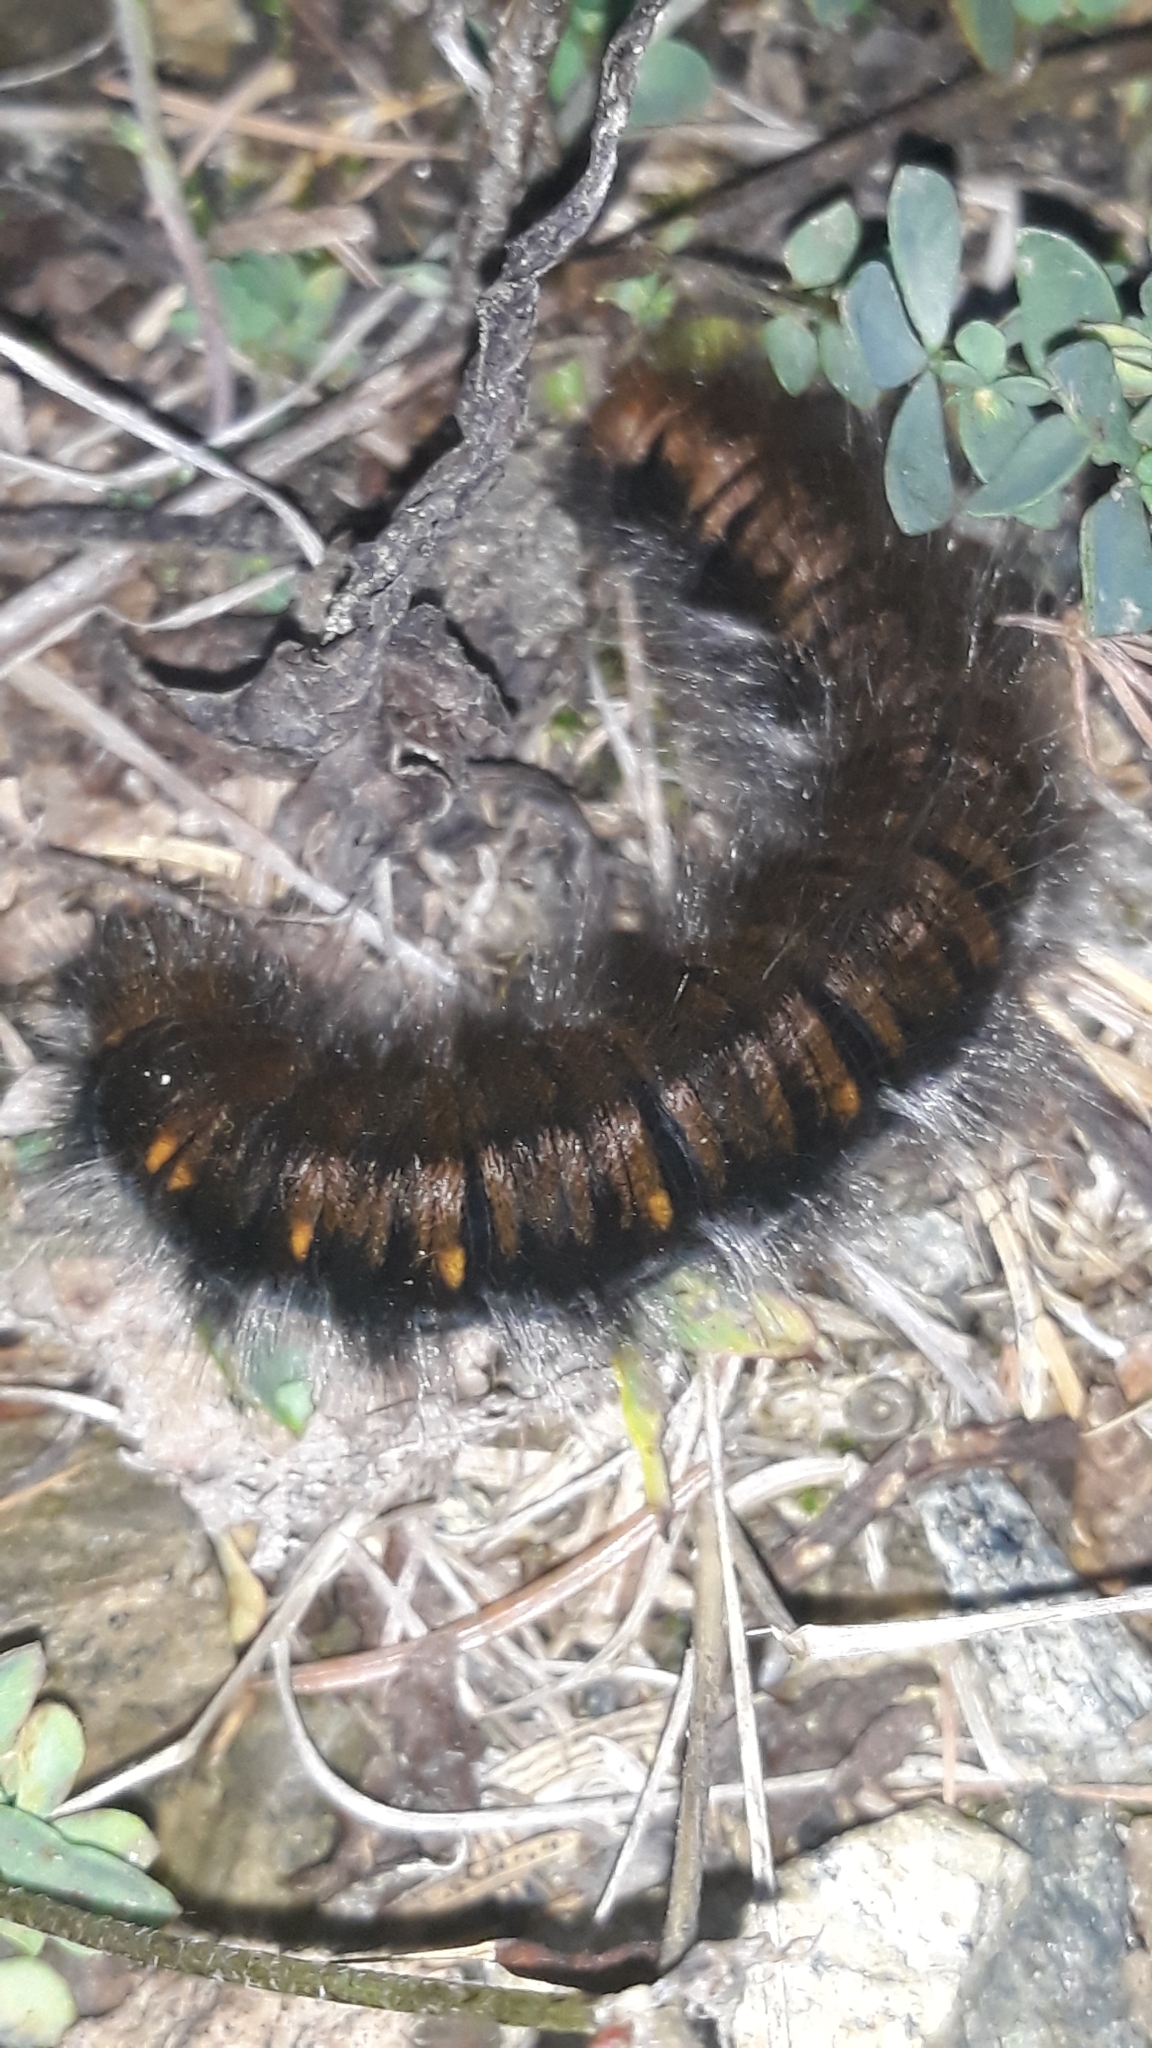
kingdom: Animalia
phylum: Arthropoda
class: Insecta
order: Lepidoptera
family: Lasiocampidae
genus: Macrothylacia
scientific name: Macrothylacia rubi
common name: Fox moth
